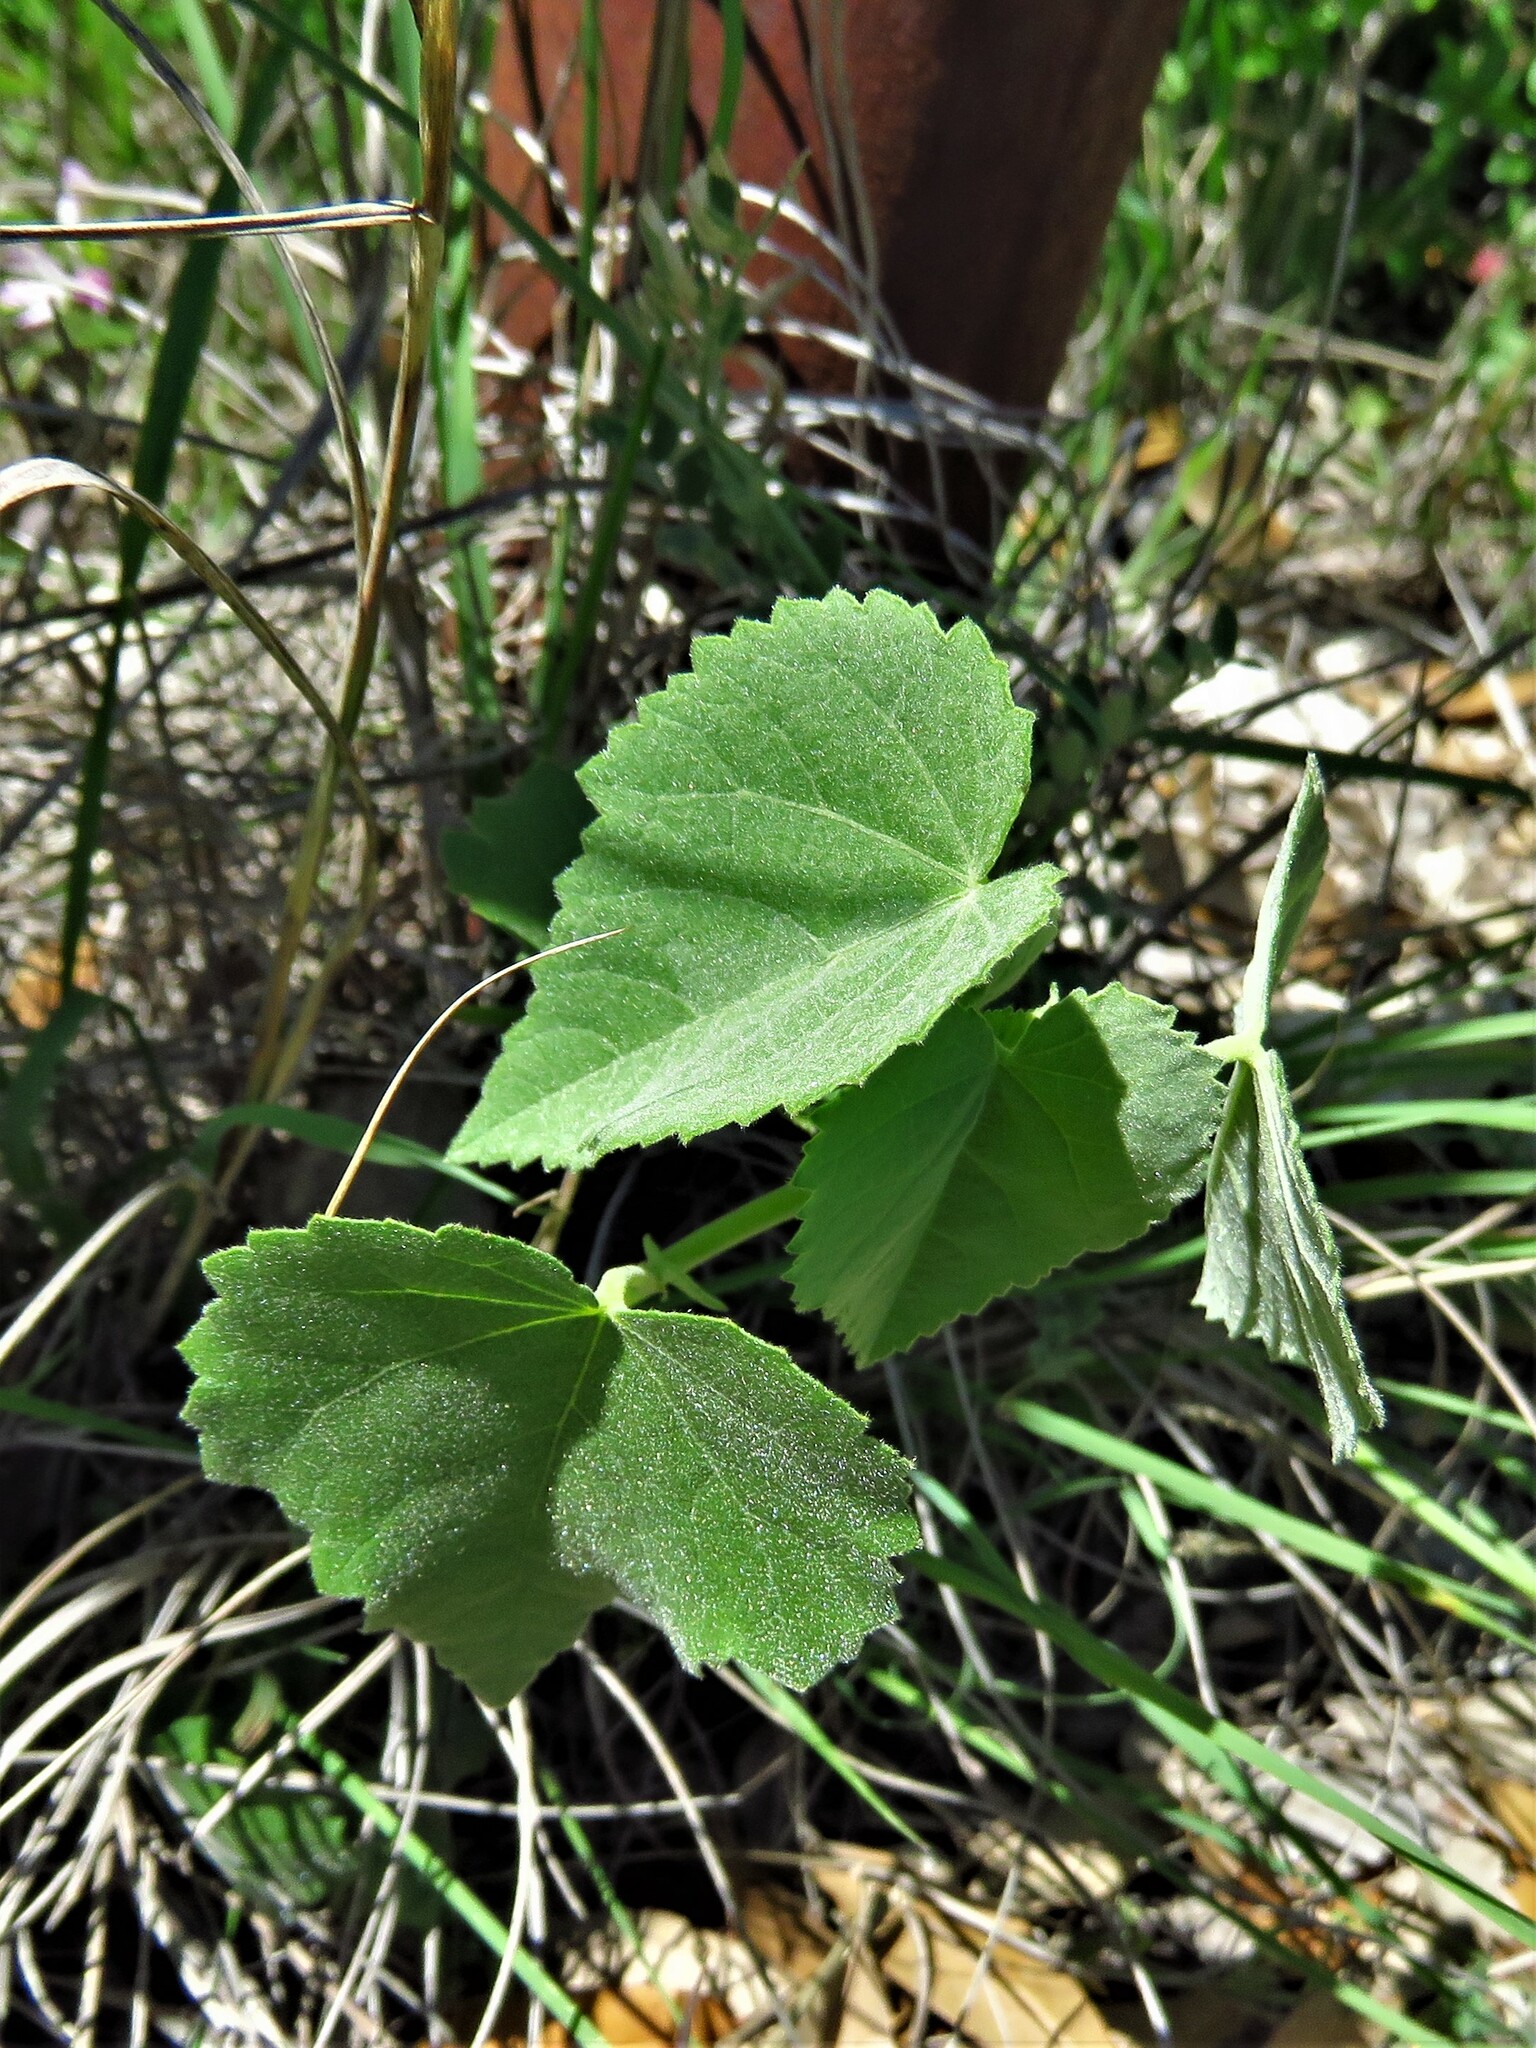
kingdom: Plantae
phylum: Tracheophyta
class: Magnoliopsida
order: Malvales
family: Malvaceae
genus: Abutilon
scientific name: Abutilon fruticosum
